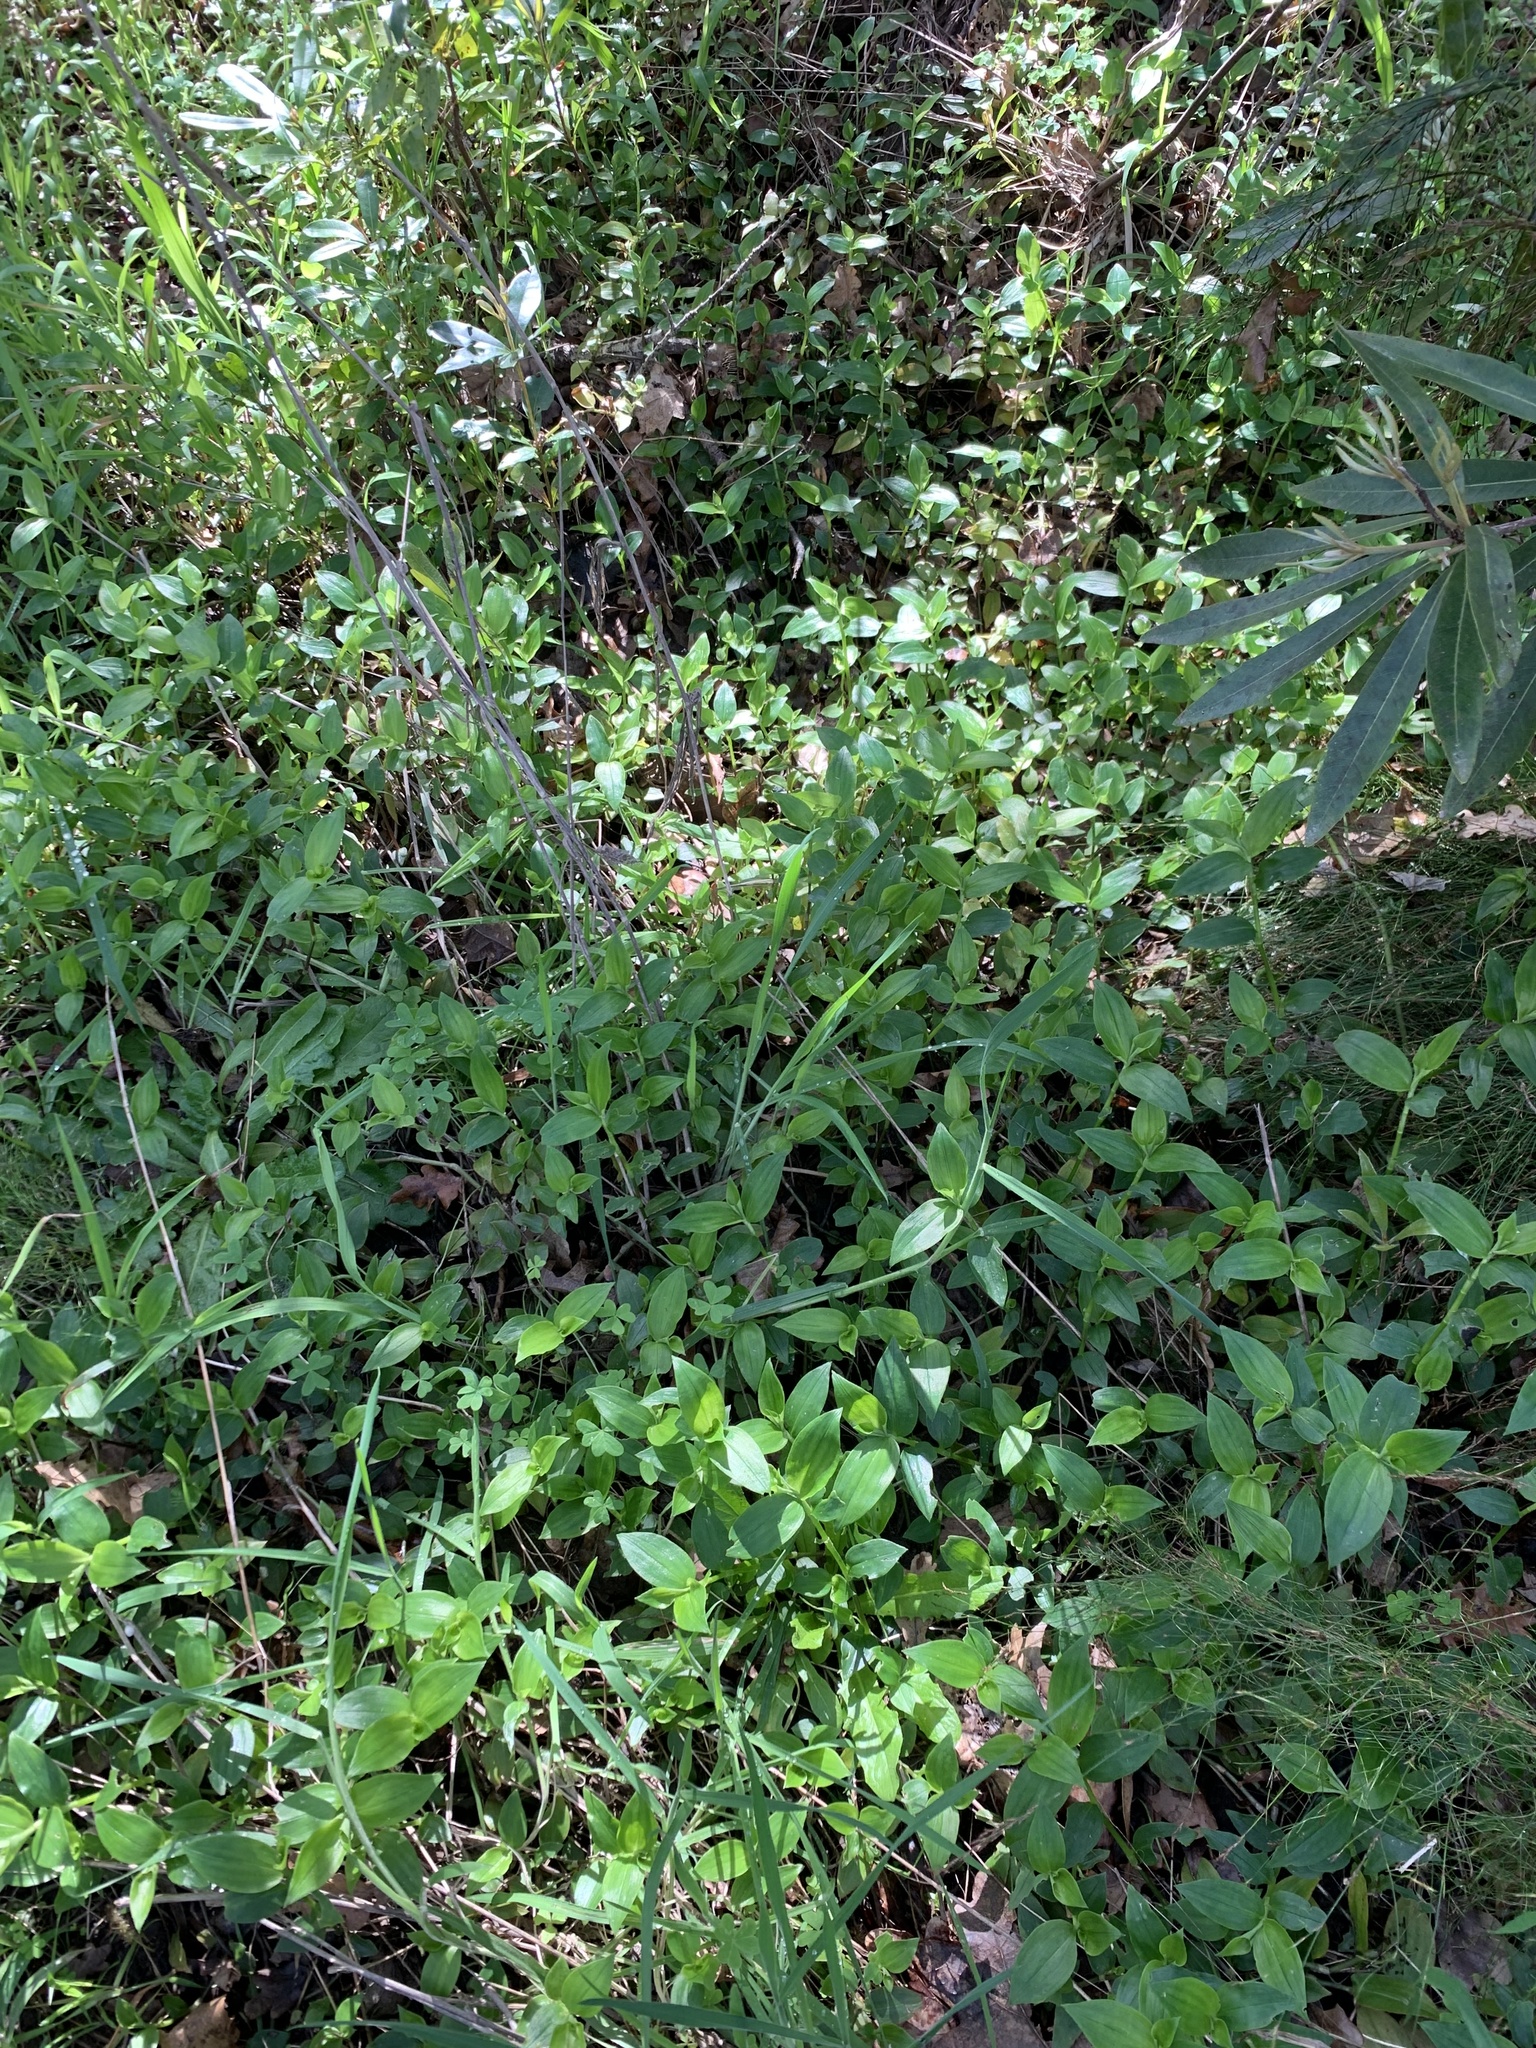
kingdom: Plantae
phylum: Tracheophyta
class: Liliopsida
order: Commelinales
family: Commelinaceae
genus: Tradescantia
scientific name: Tradescantia fluminensis
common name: Wandering-jew
